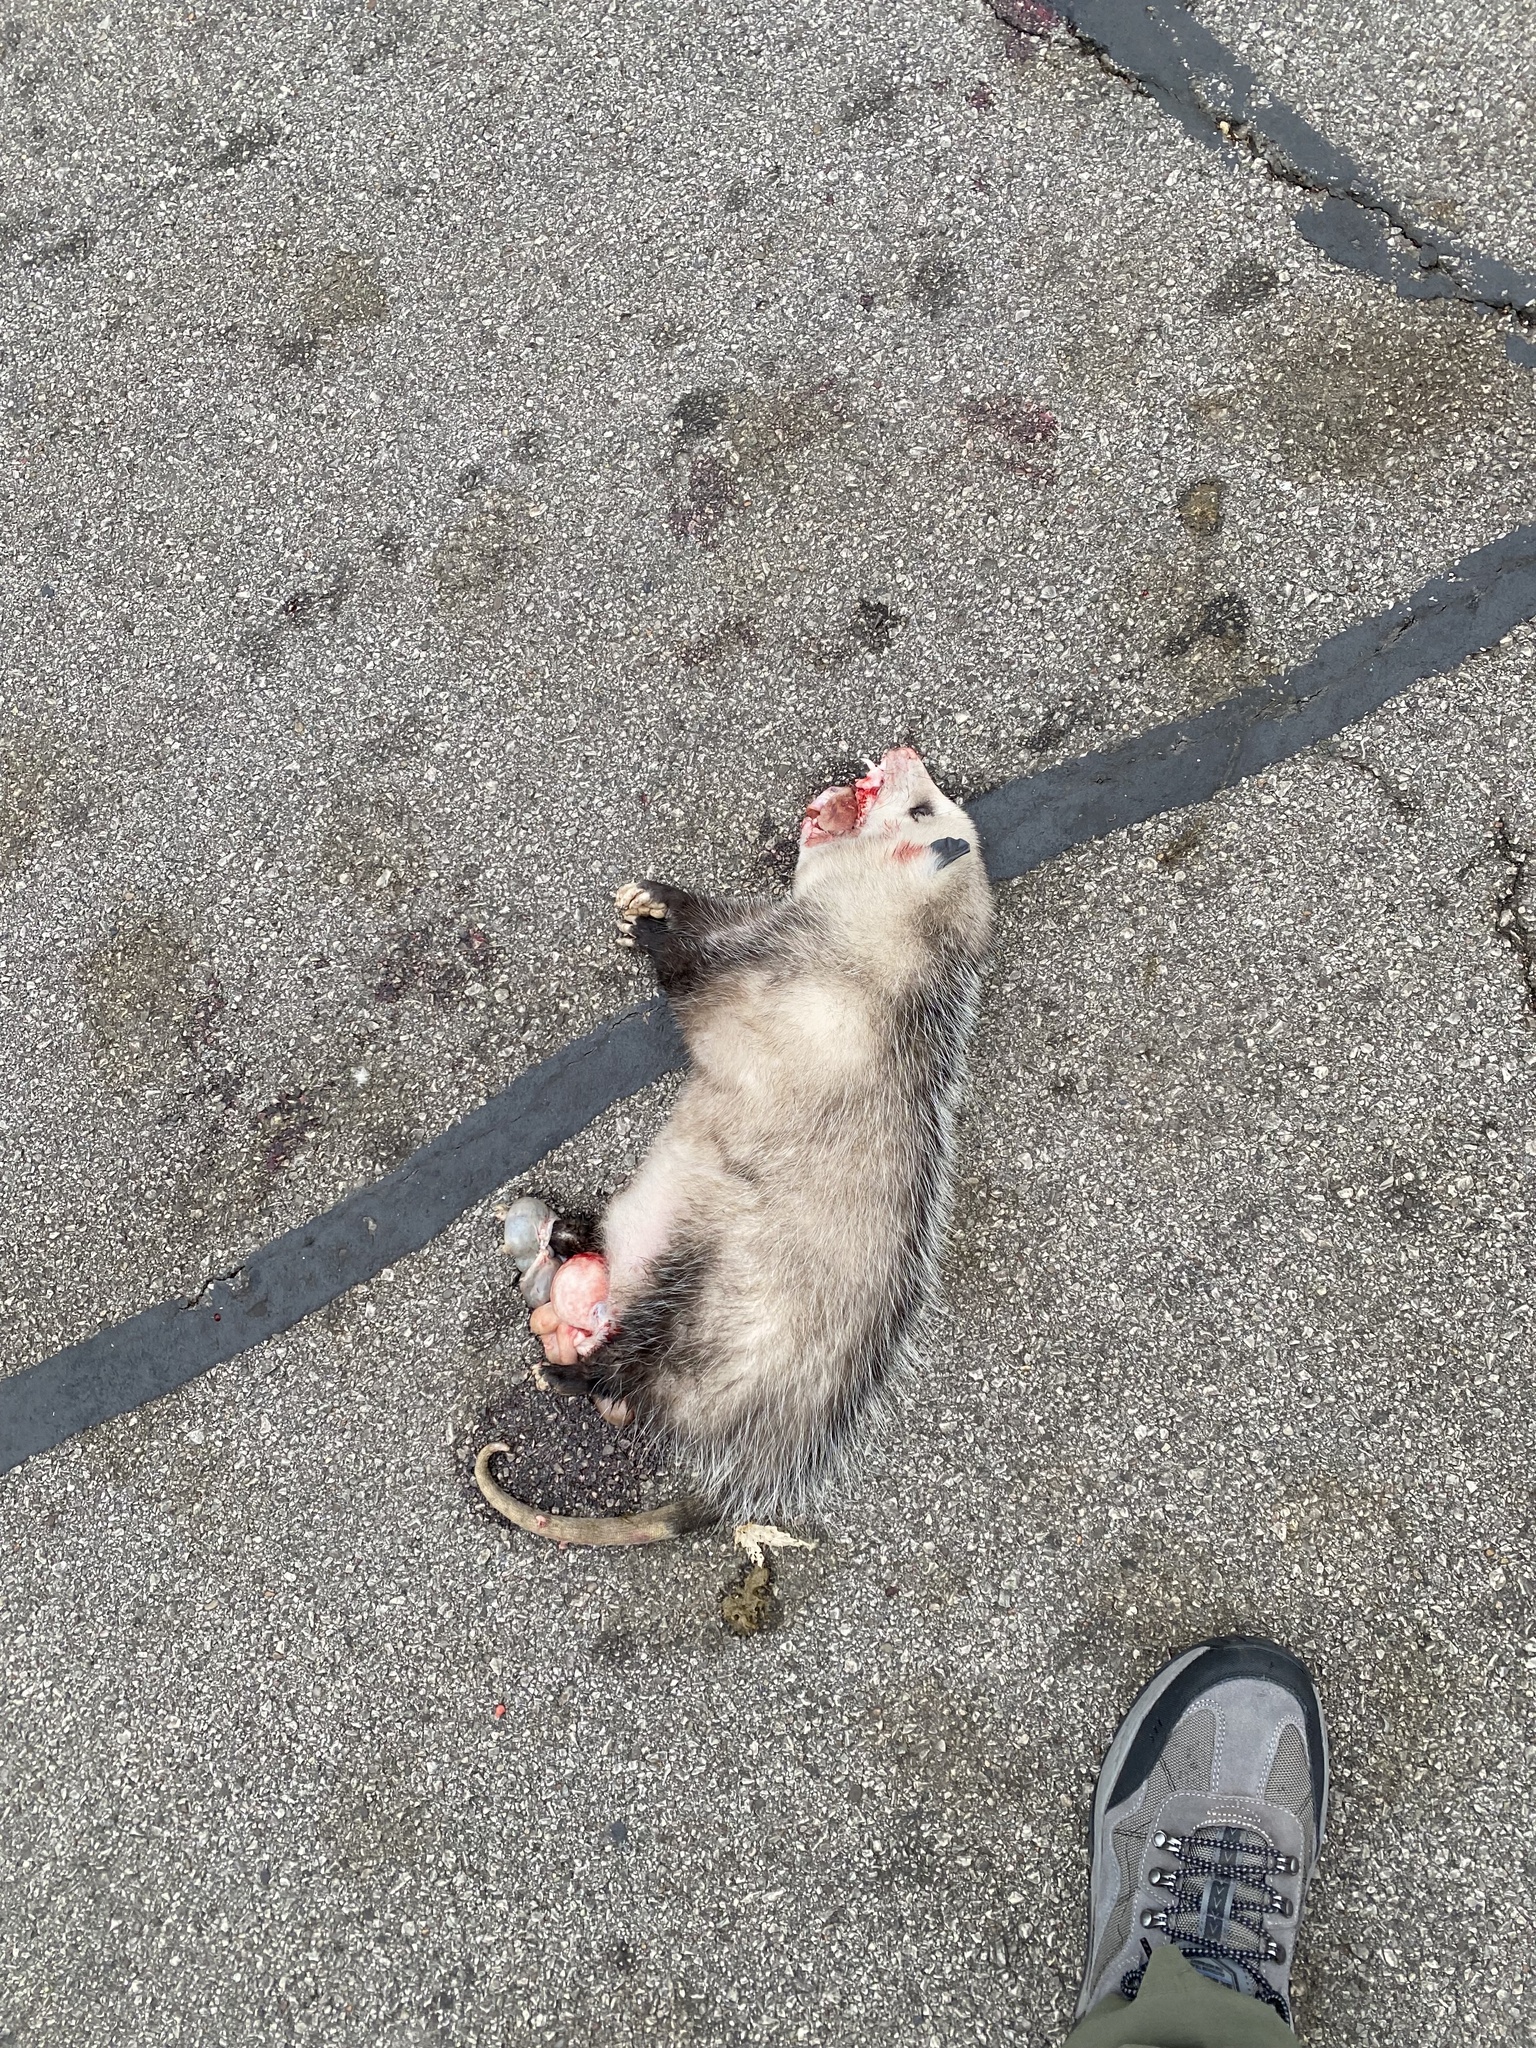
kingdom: Animalia
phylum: Chordata
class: Mammalia
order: Didelphimorphia
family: Didelphidae
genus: Didelphis
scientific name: Didelphis virginiana
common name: Virginia opossum
